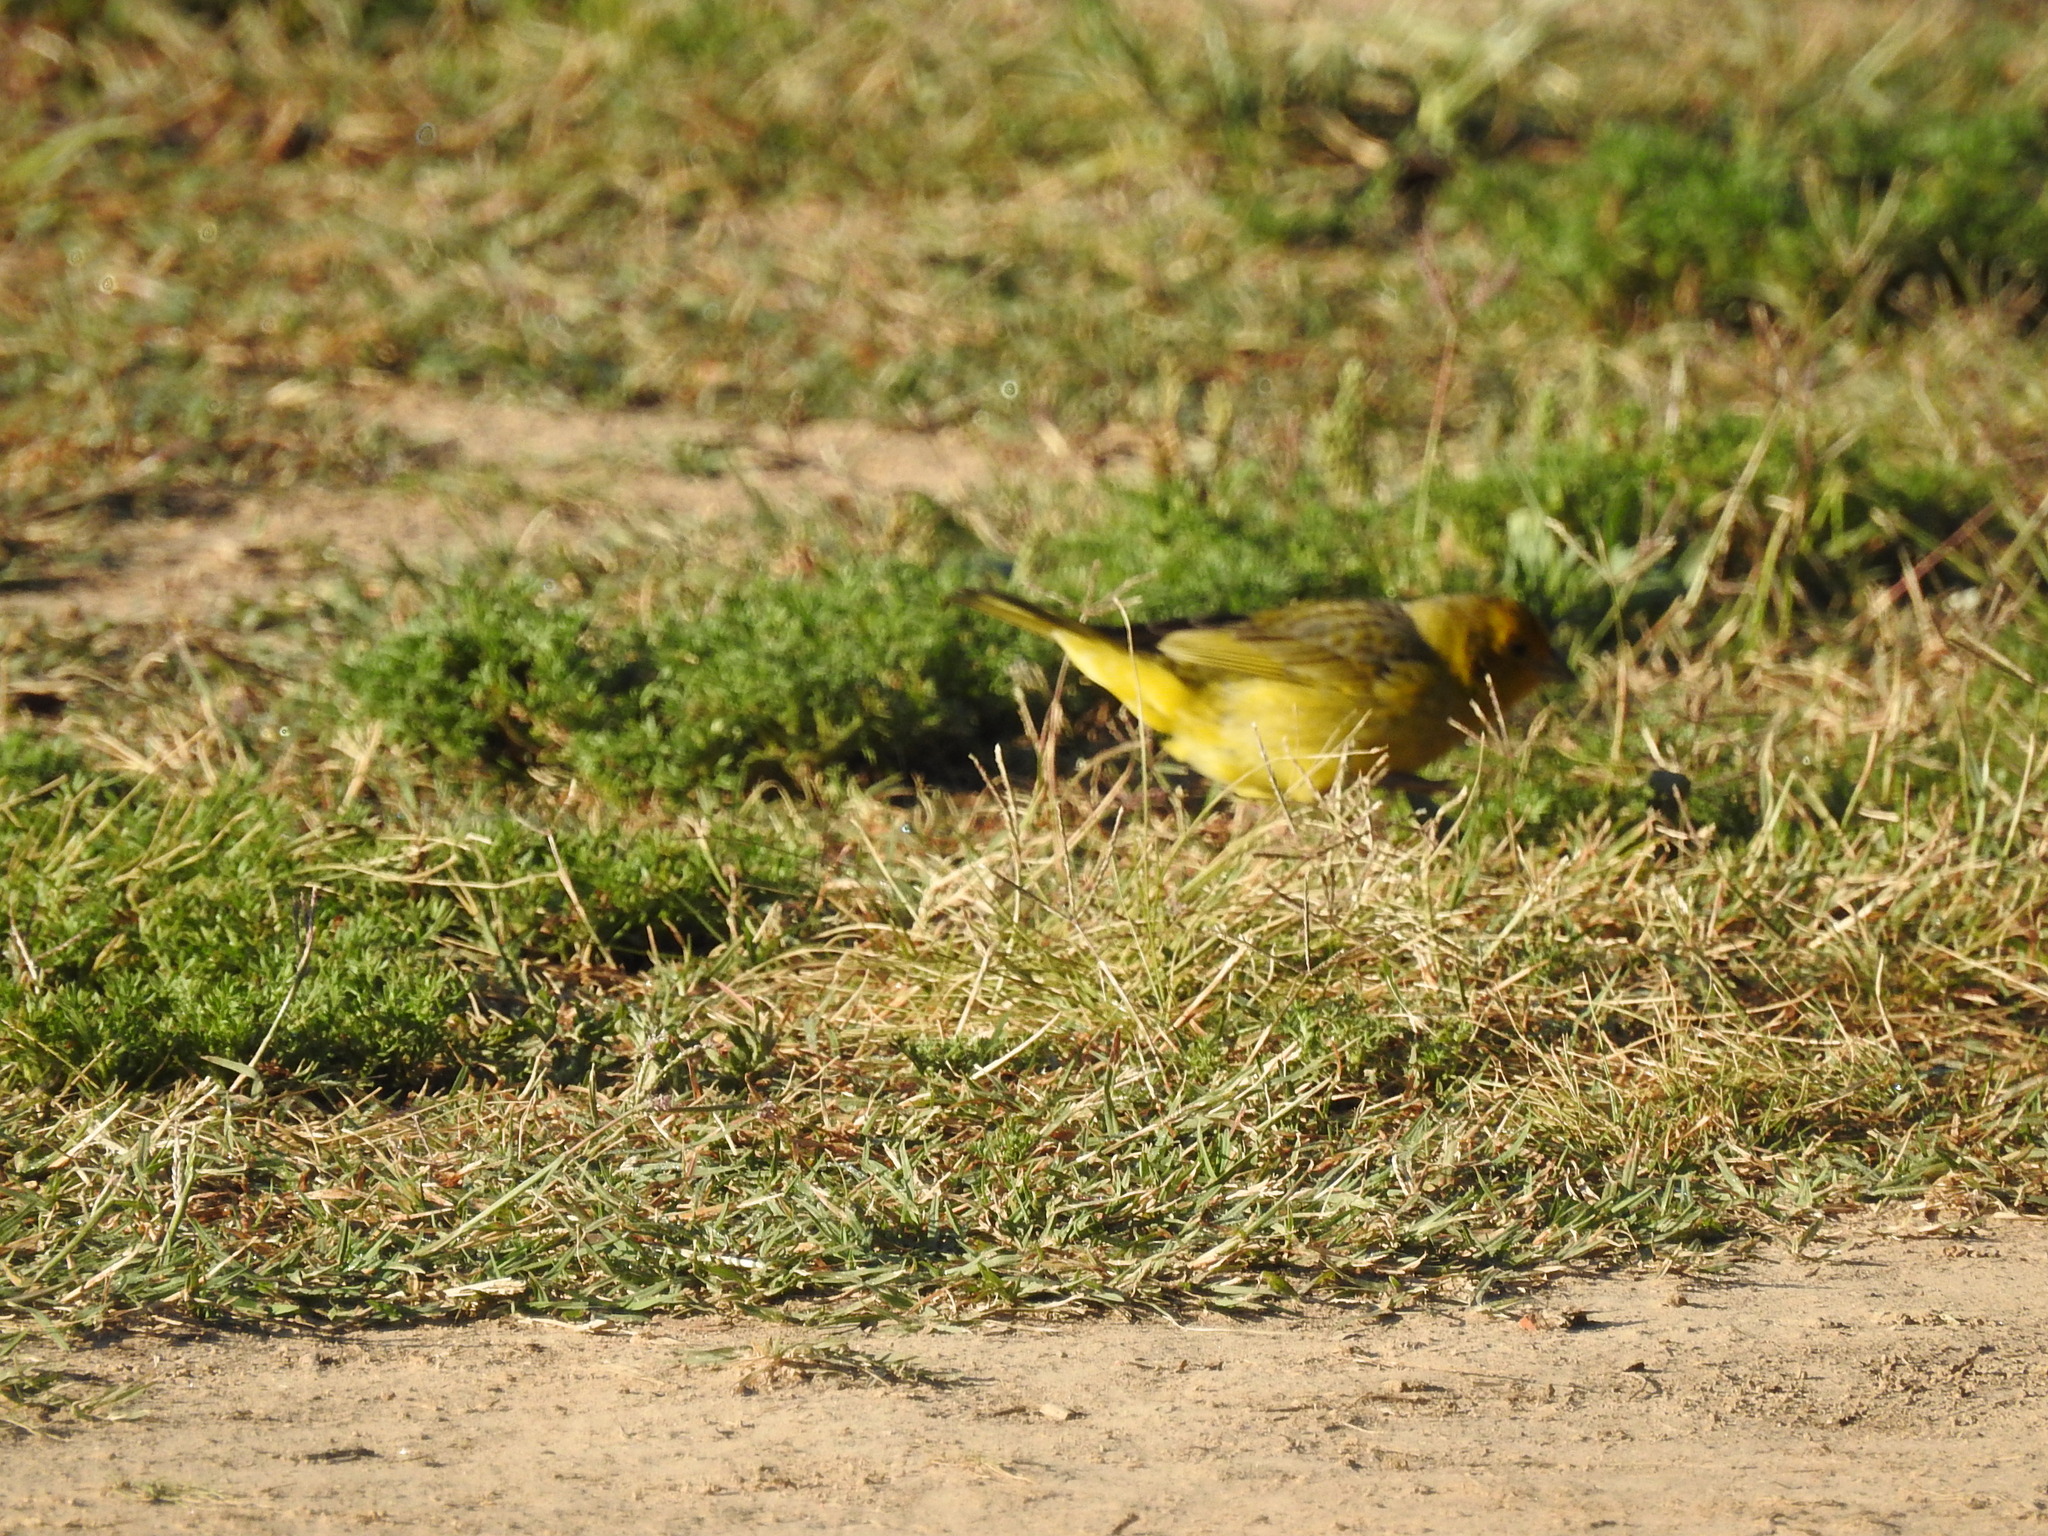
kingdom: Animalia
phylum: Chordata
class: Aves
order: Passeriformes
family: Thraupidae
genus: Sicalis
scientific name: Sicalis flaveola
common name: Saffron finch
